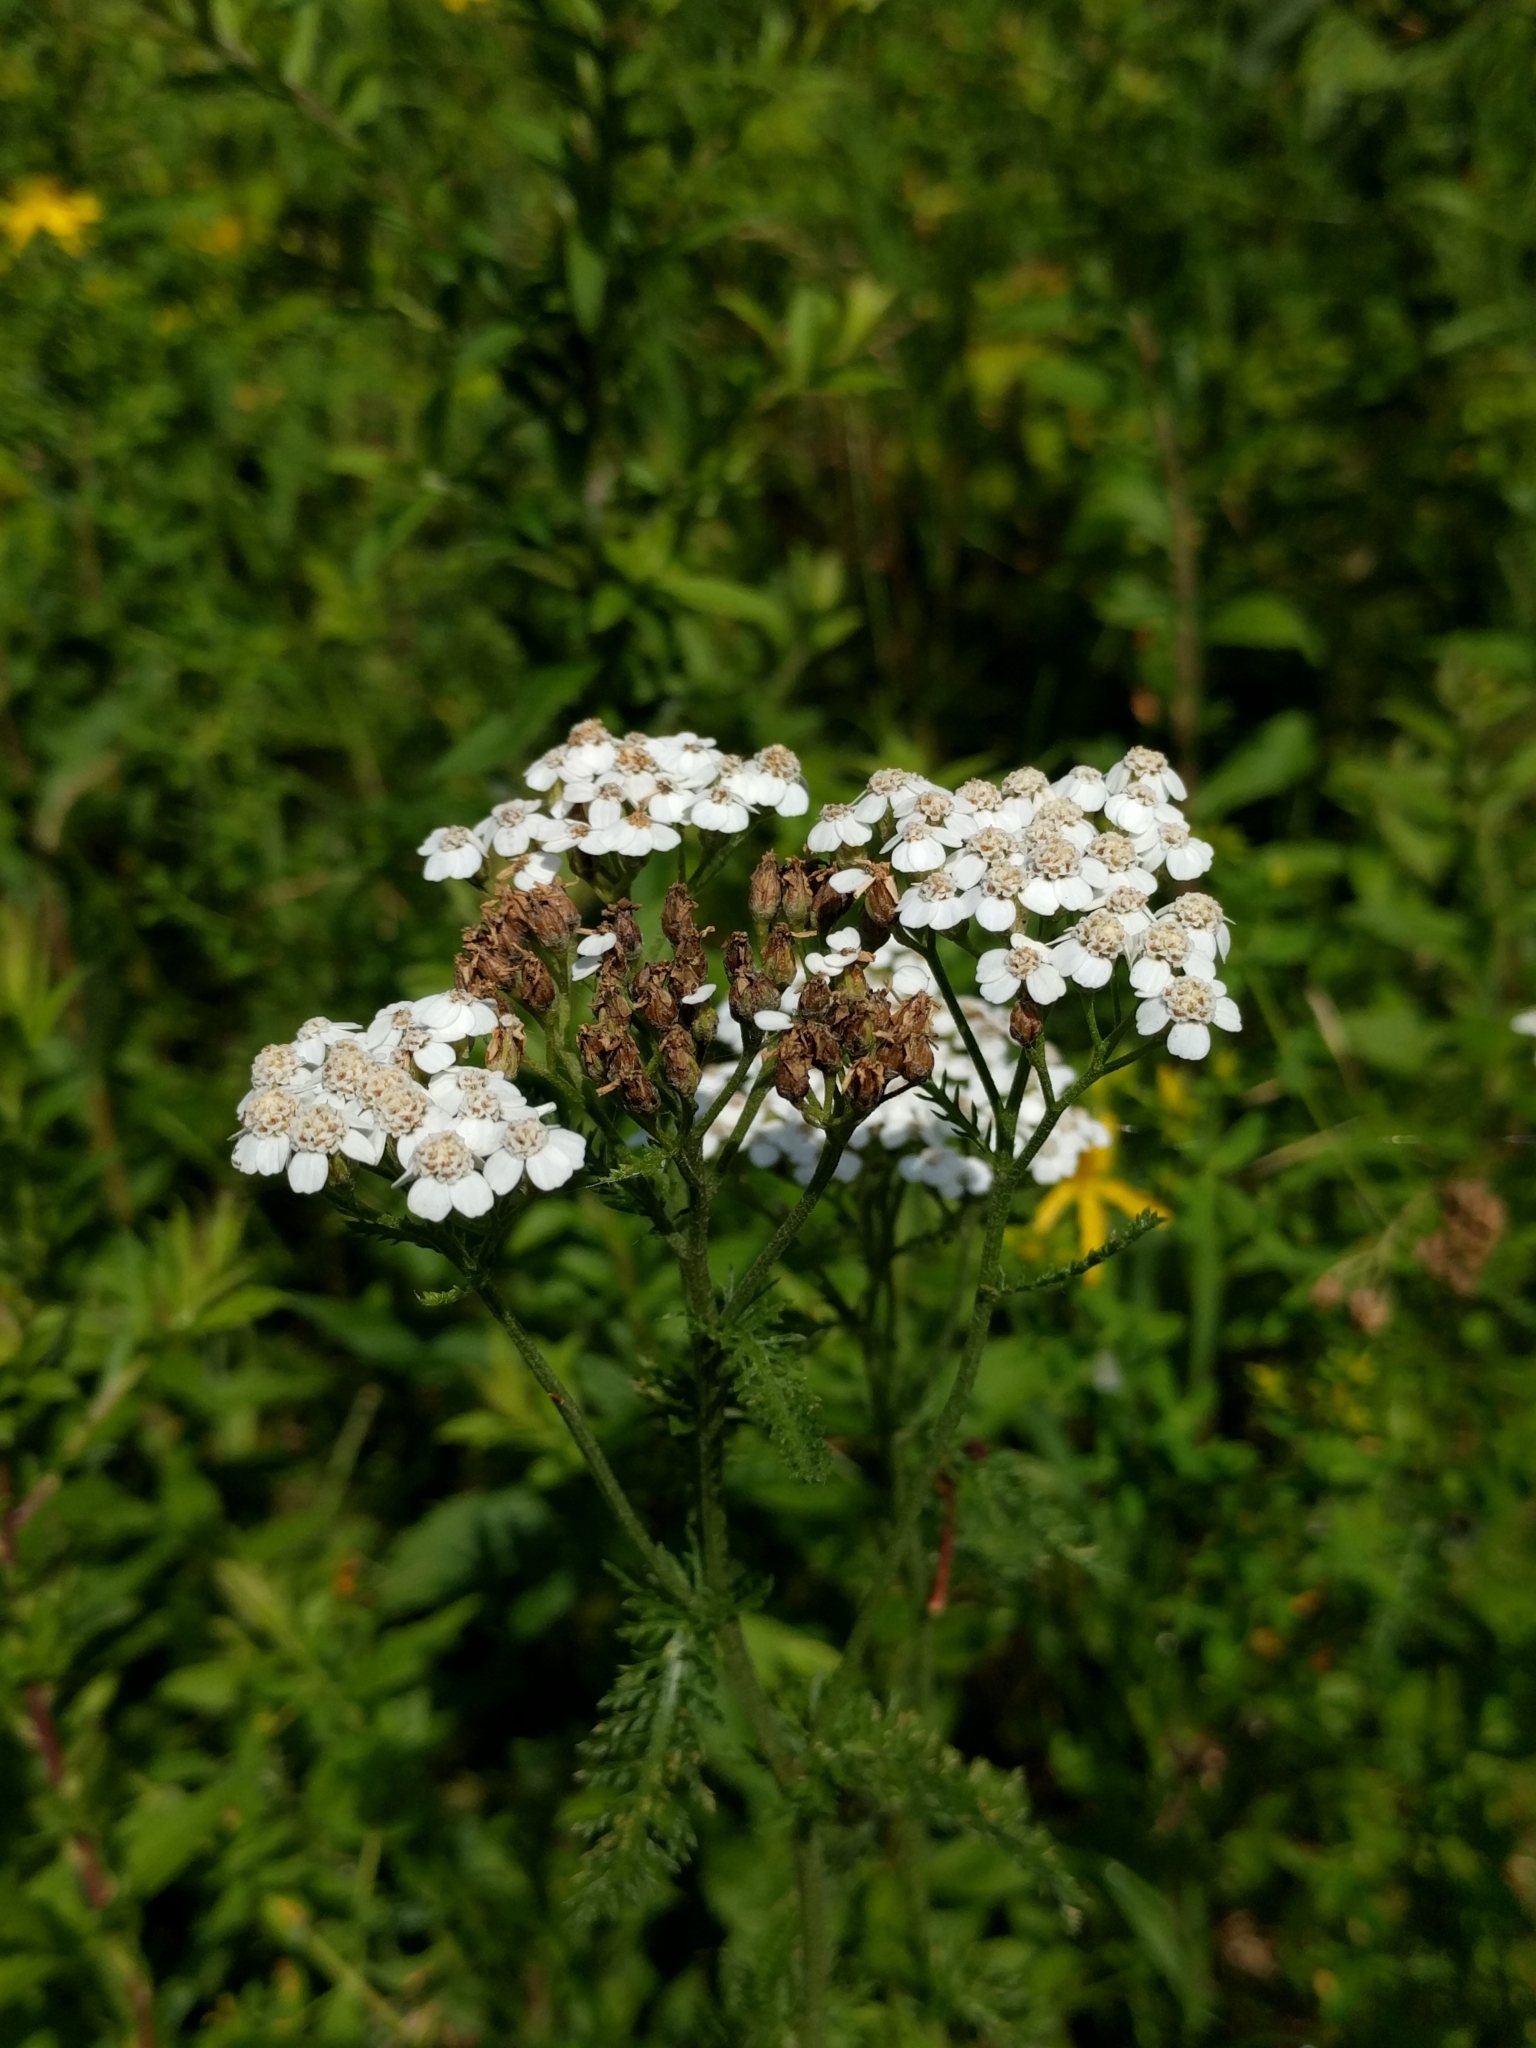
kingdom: Plantae
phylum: Tracheophyta
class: Magnoliopsida
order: Asterales
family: Asteraceae
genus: Achillea
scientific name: Achillea millefolium
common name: Yarrow
